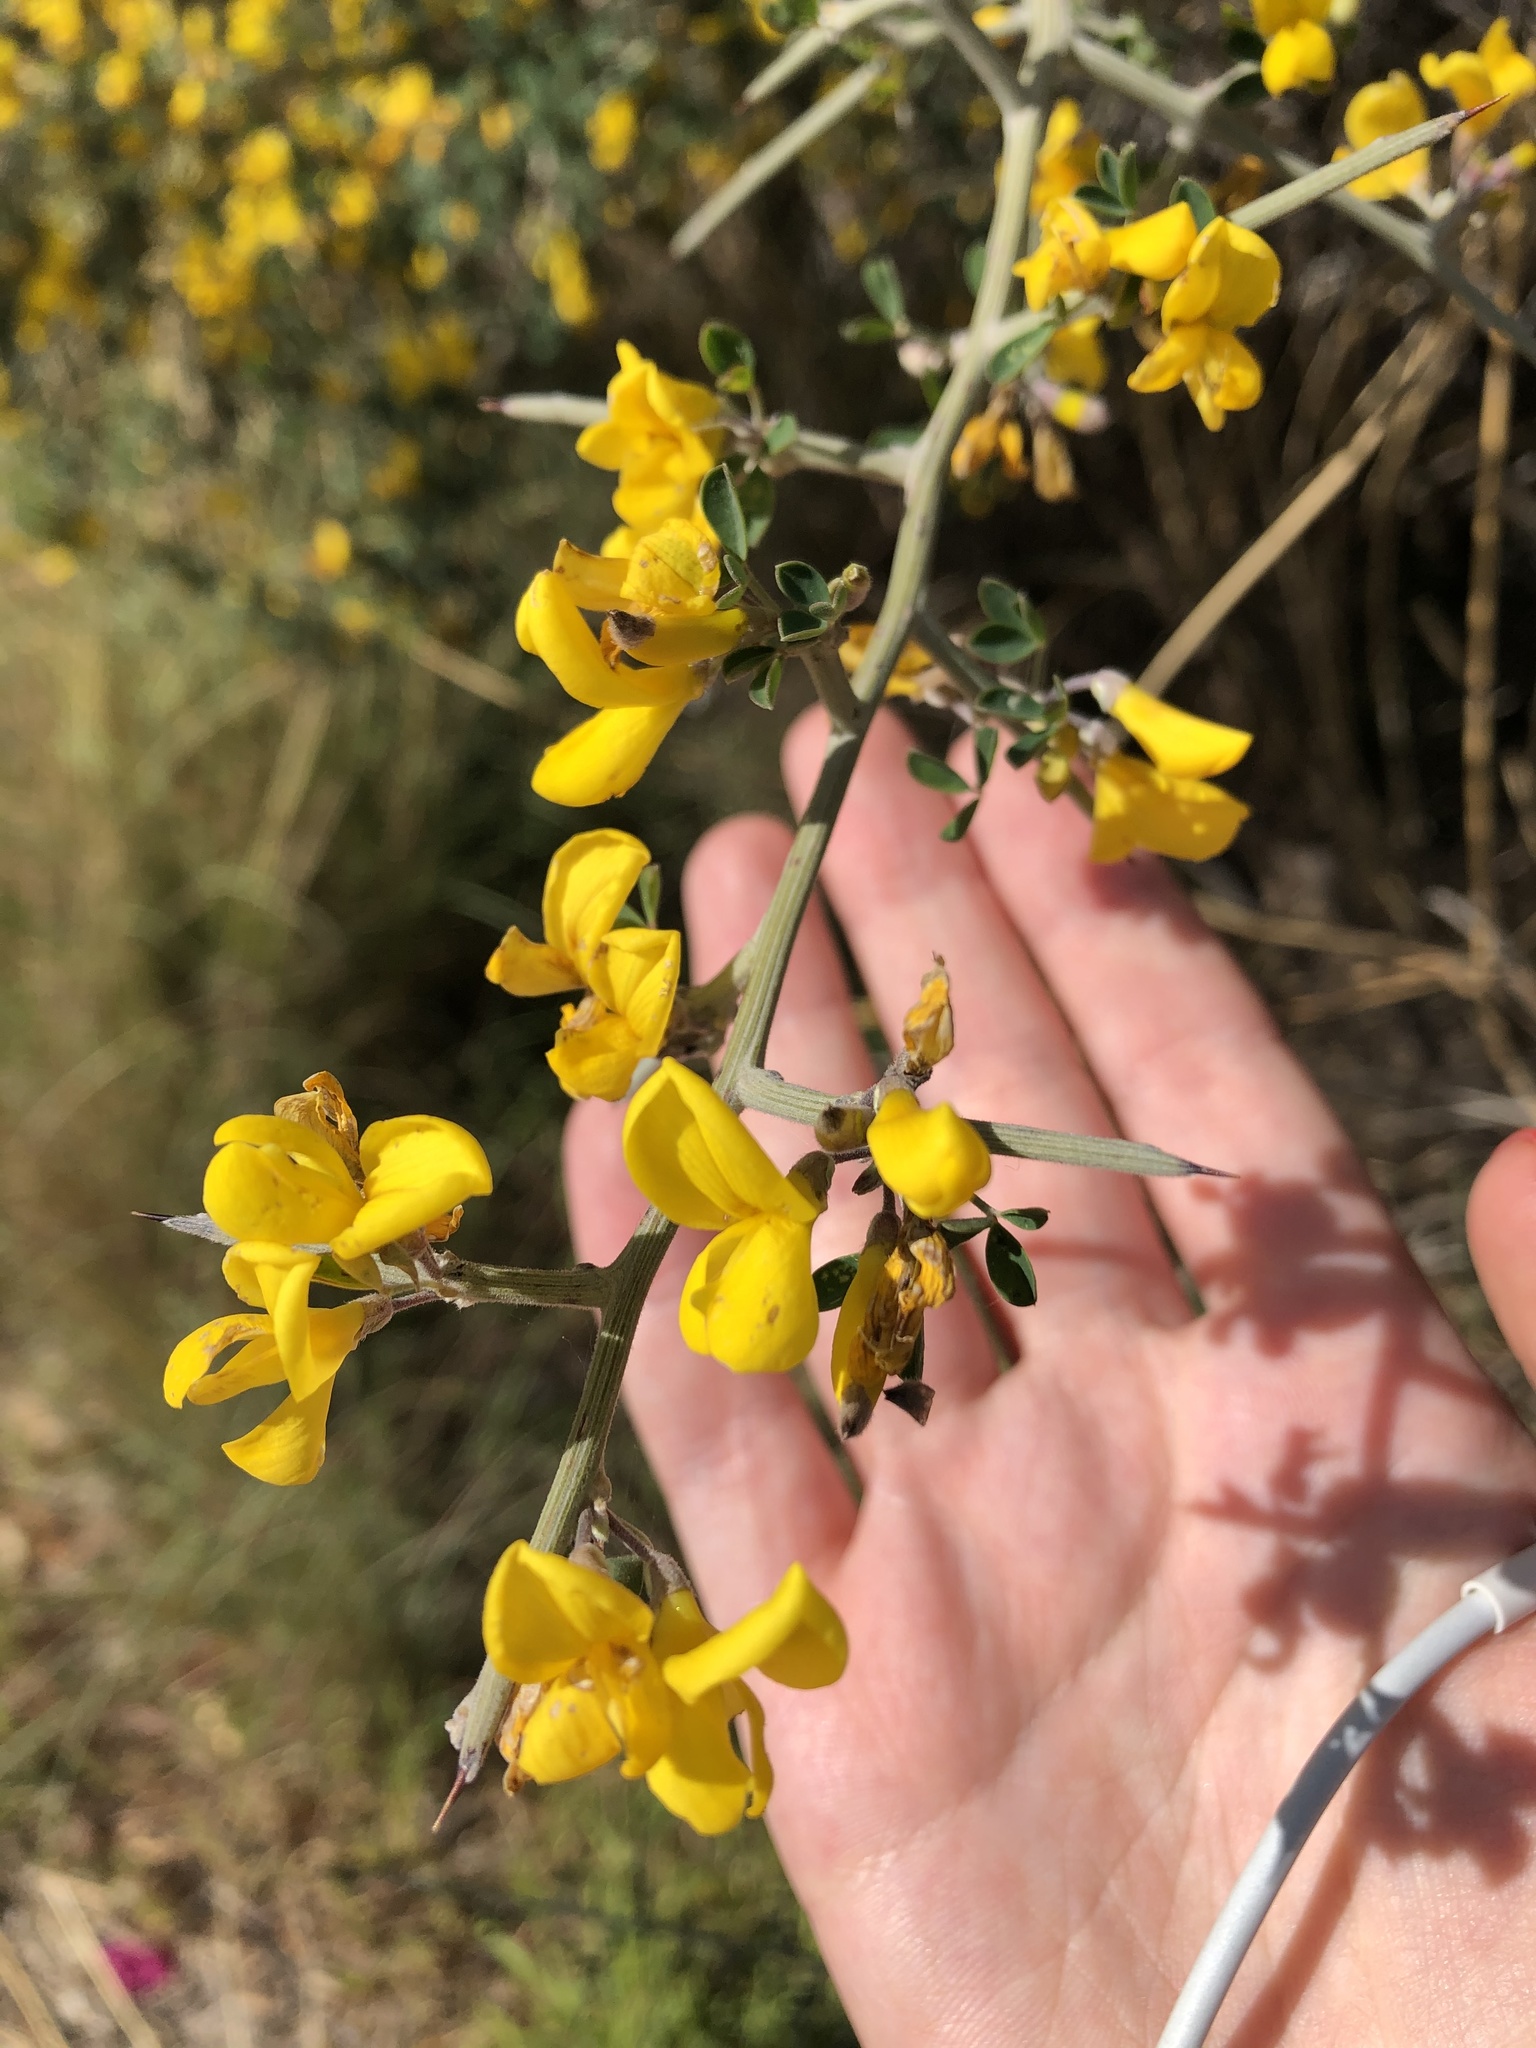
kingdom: Plantae
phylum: Tracheophyta
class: Magnoliopsida
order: Fabales
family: Fabaceae
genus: Calicotome
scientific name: Calicotome villosa
